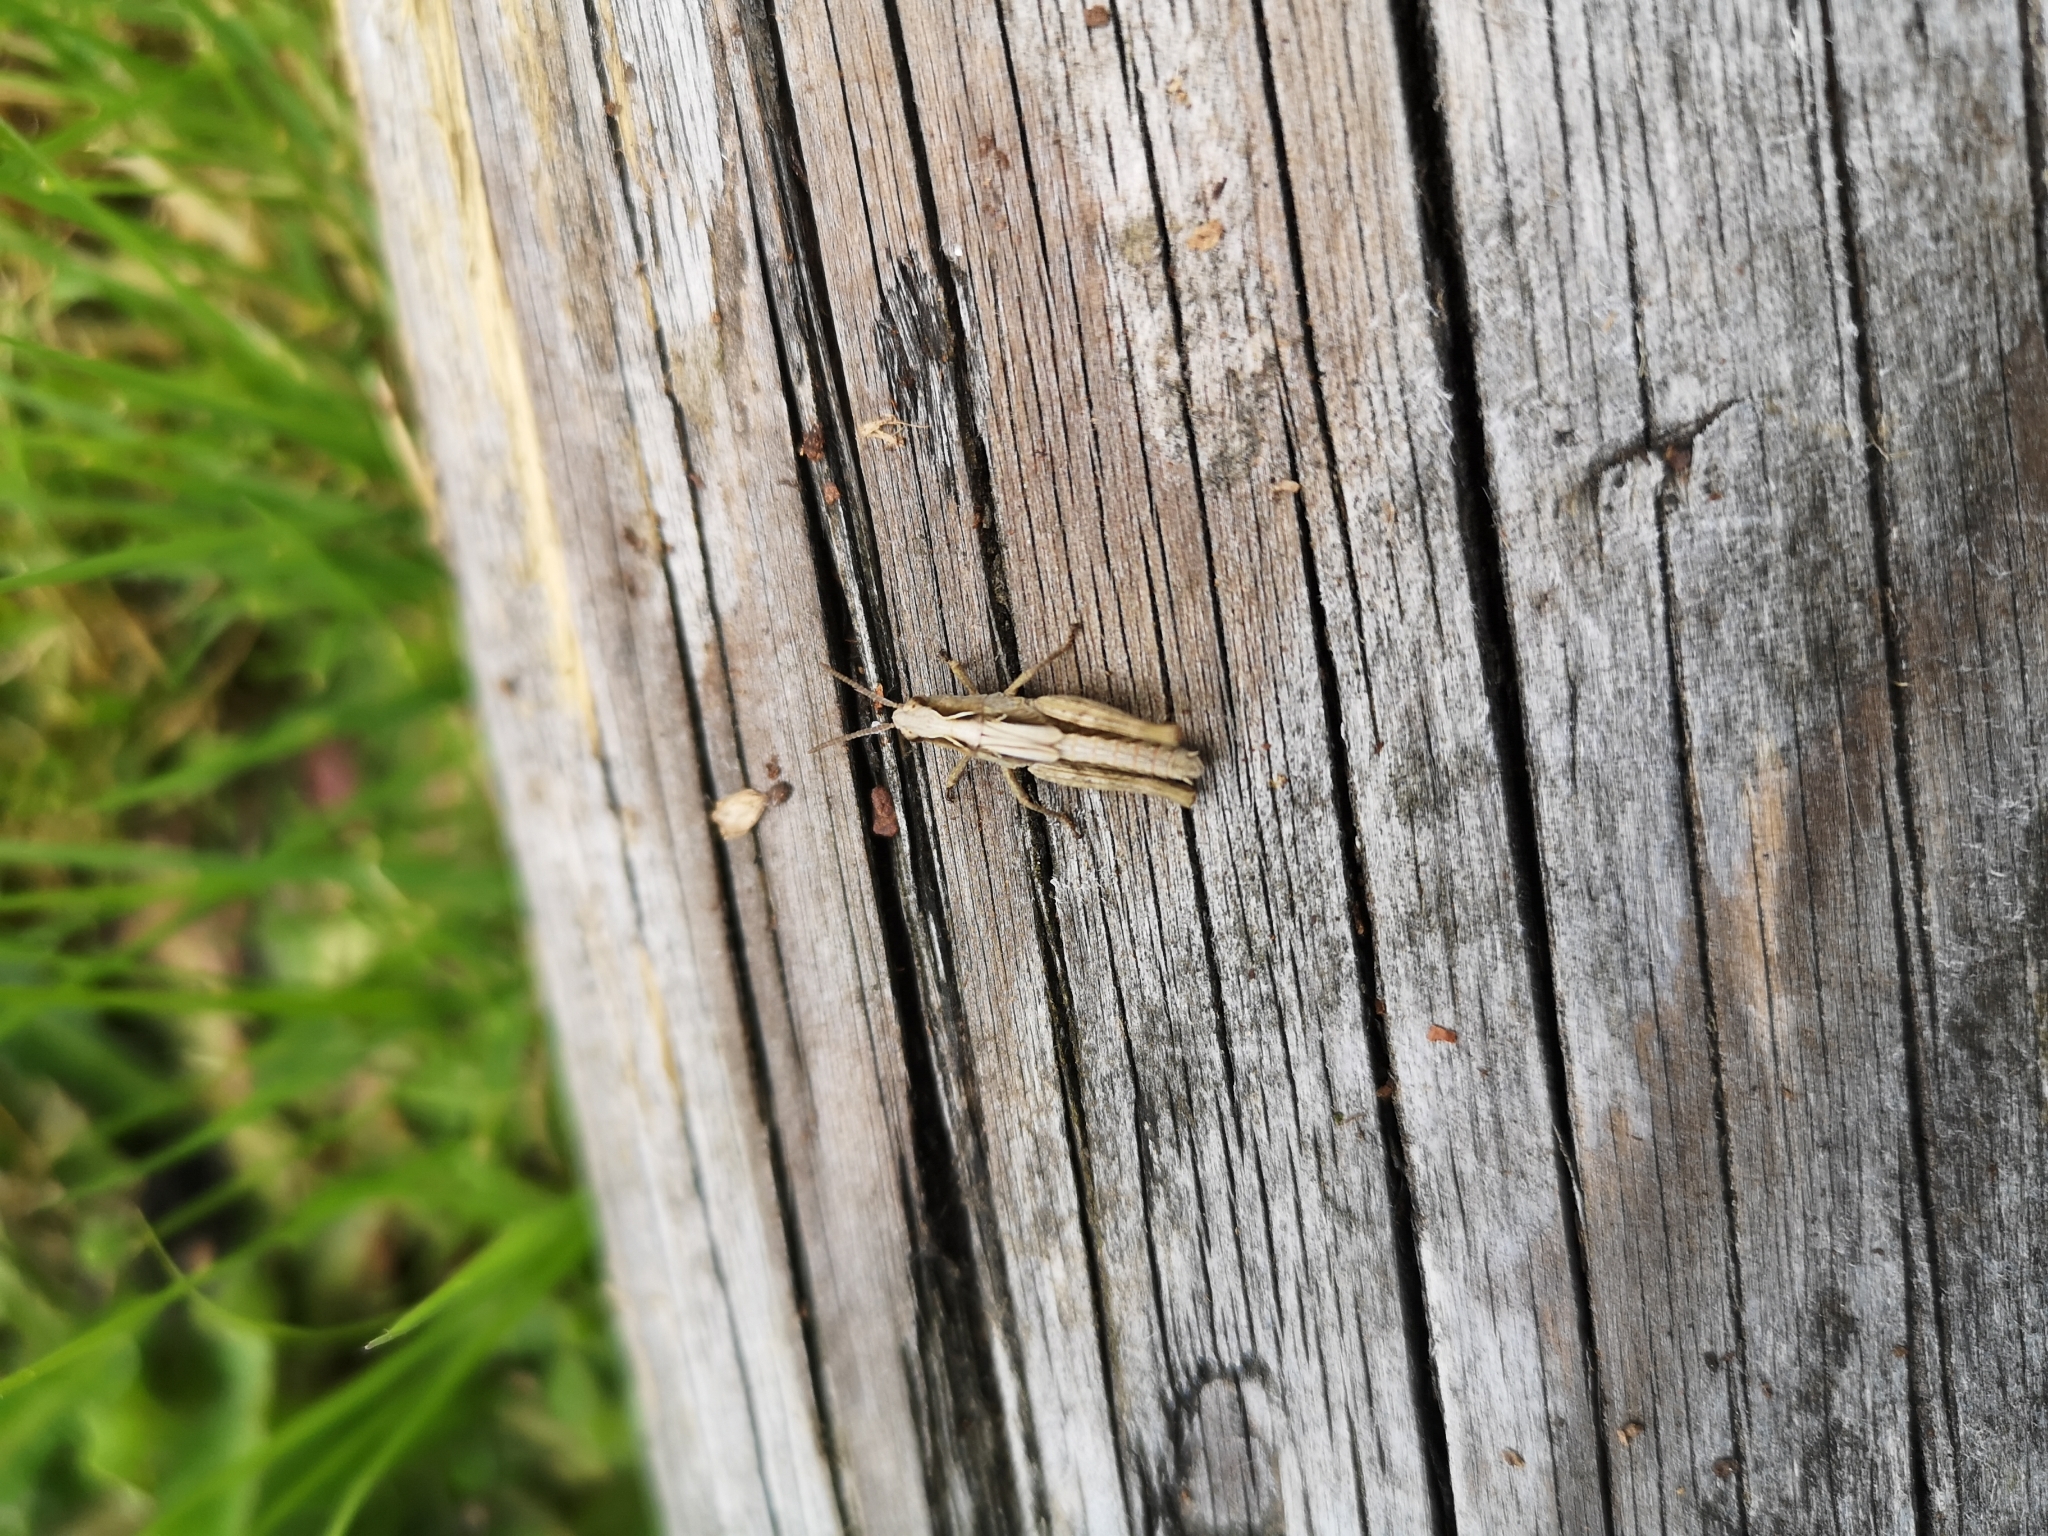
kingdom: Animalia
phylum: Arthropoda
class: Insecta
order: Orthoptera
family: Acrididae
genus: Chorthippus
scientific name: Chorthippus brunneus
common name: Field grasshopper
